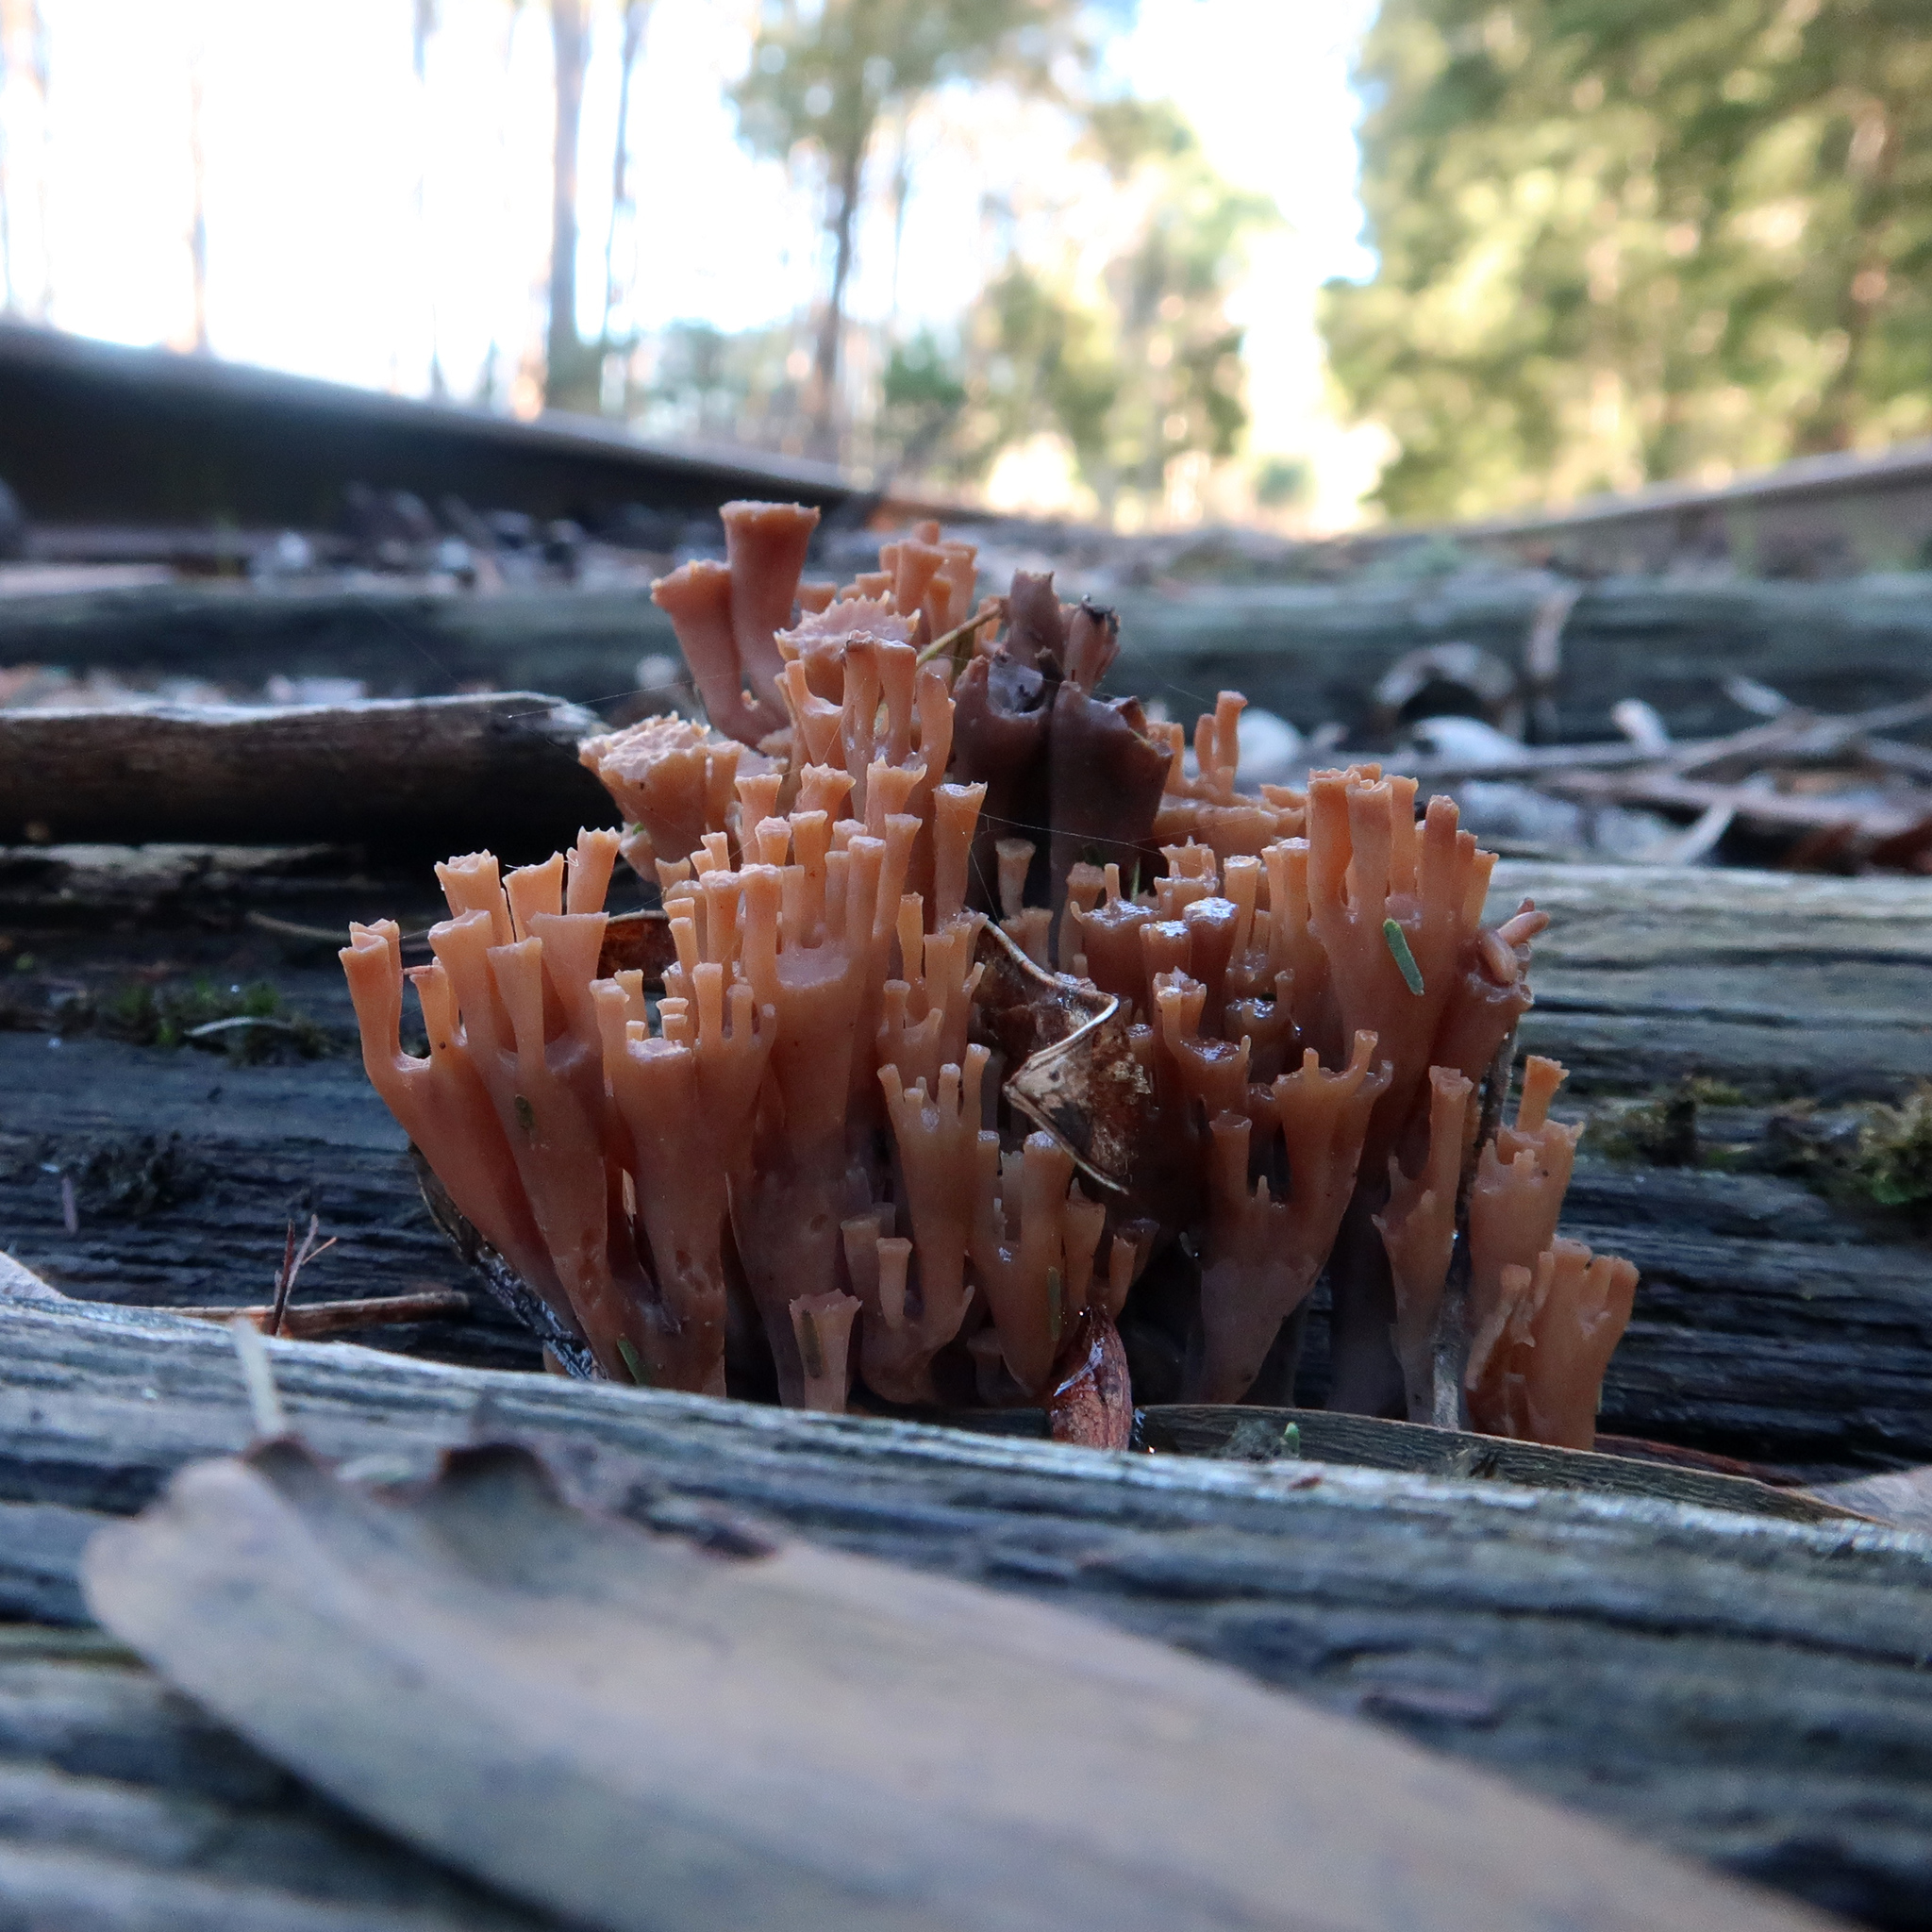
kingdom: Fungi
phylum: Basidiomycota
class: Agaricomycetes
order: Russulales
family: Auriscalpiaceae
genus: Artomyces
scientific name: Artomyces austropiperatus
